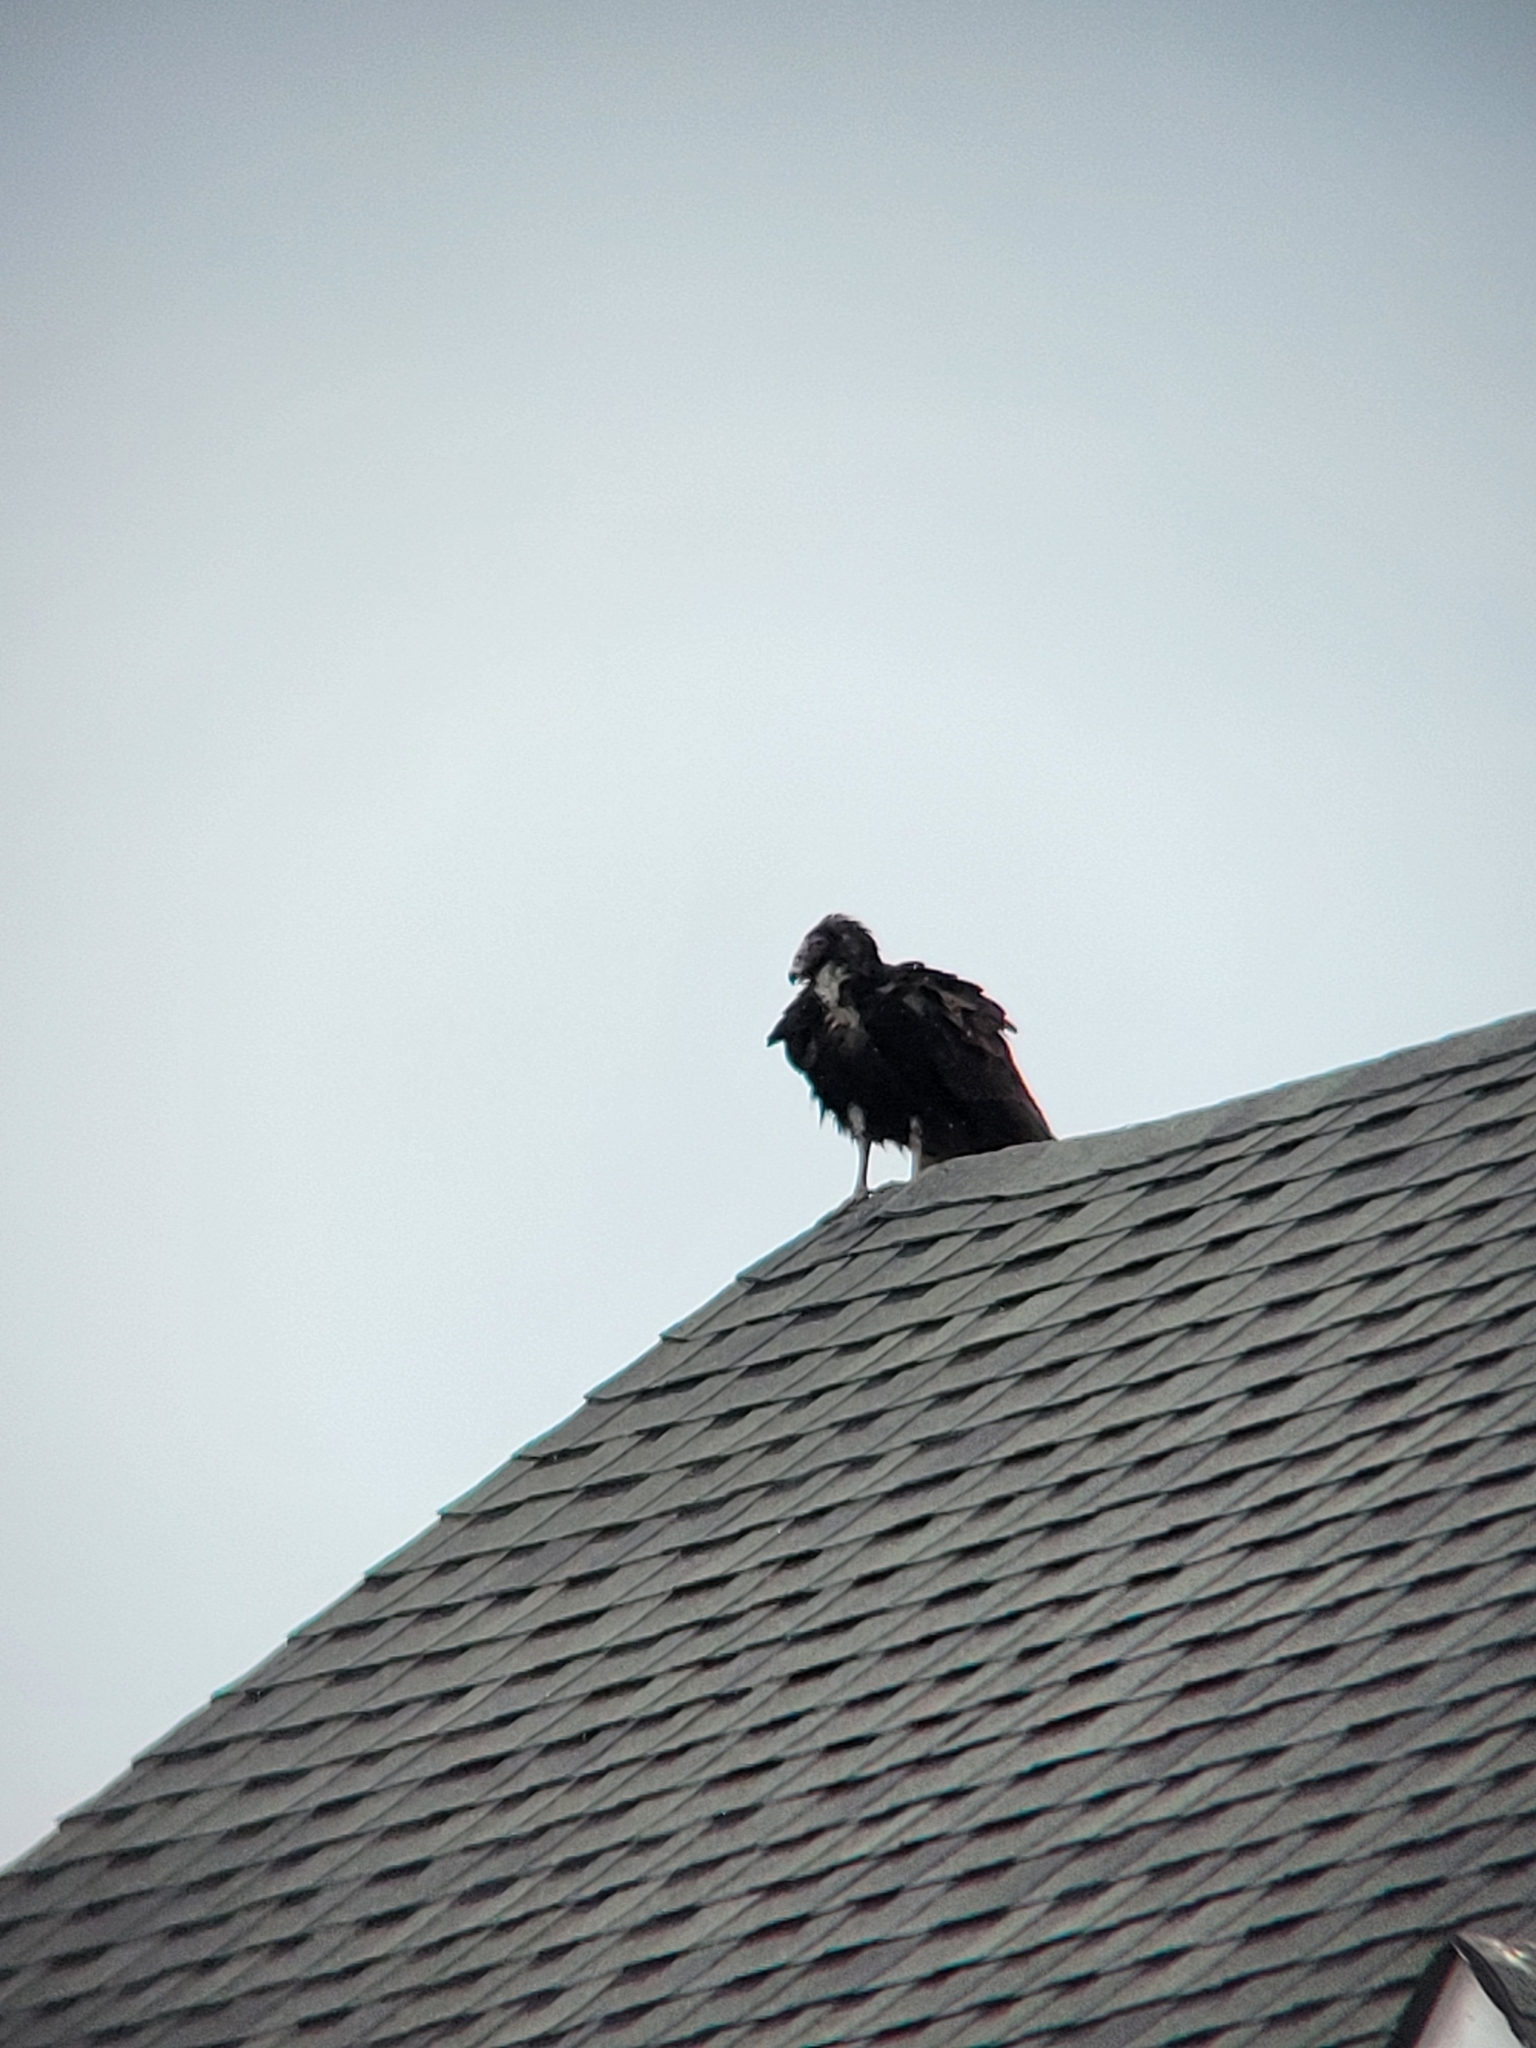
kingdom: Animalia
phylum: Chordata
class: Aves
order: Accipitriformes
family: Cathartidae
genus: Cathartes
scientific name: Cathartes aura
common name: Turkey vulture
